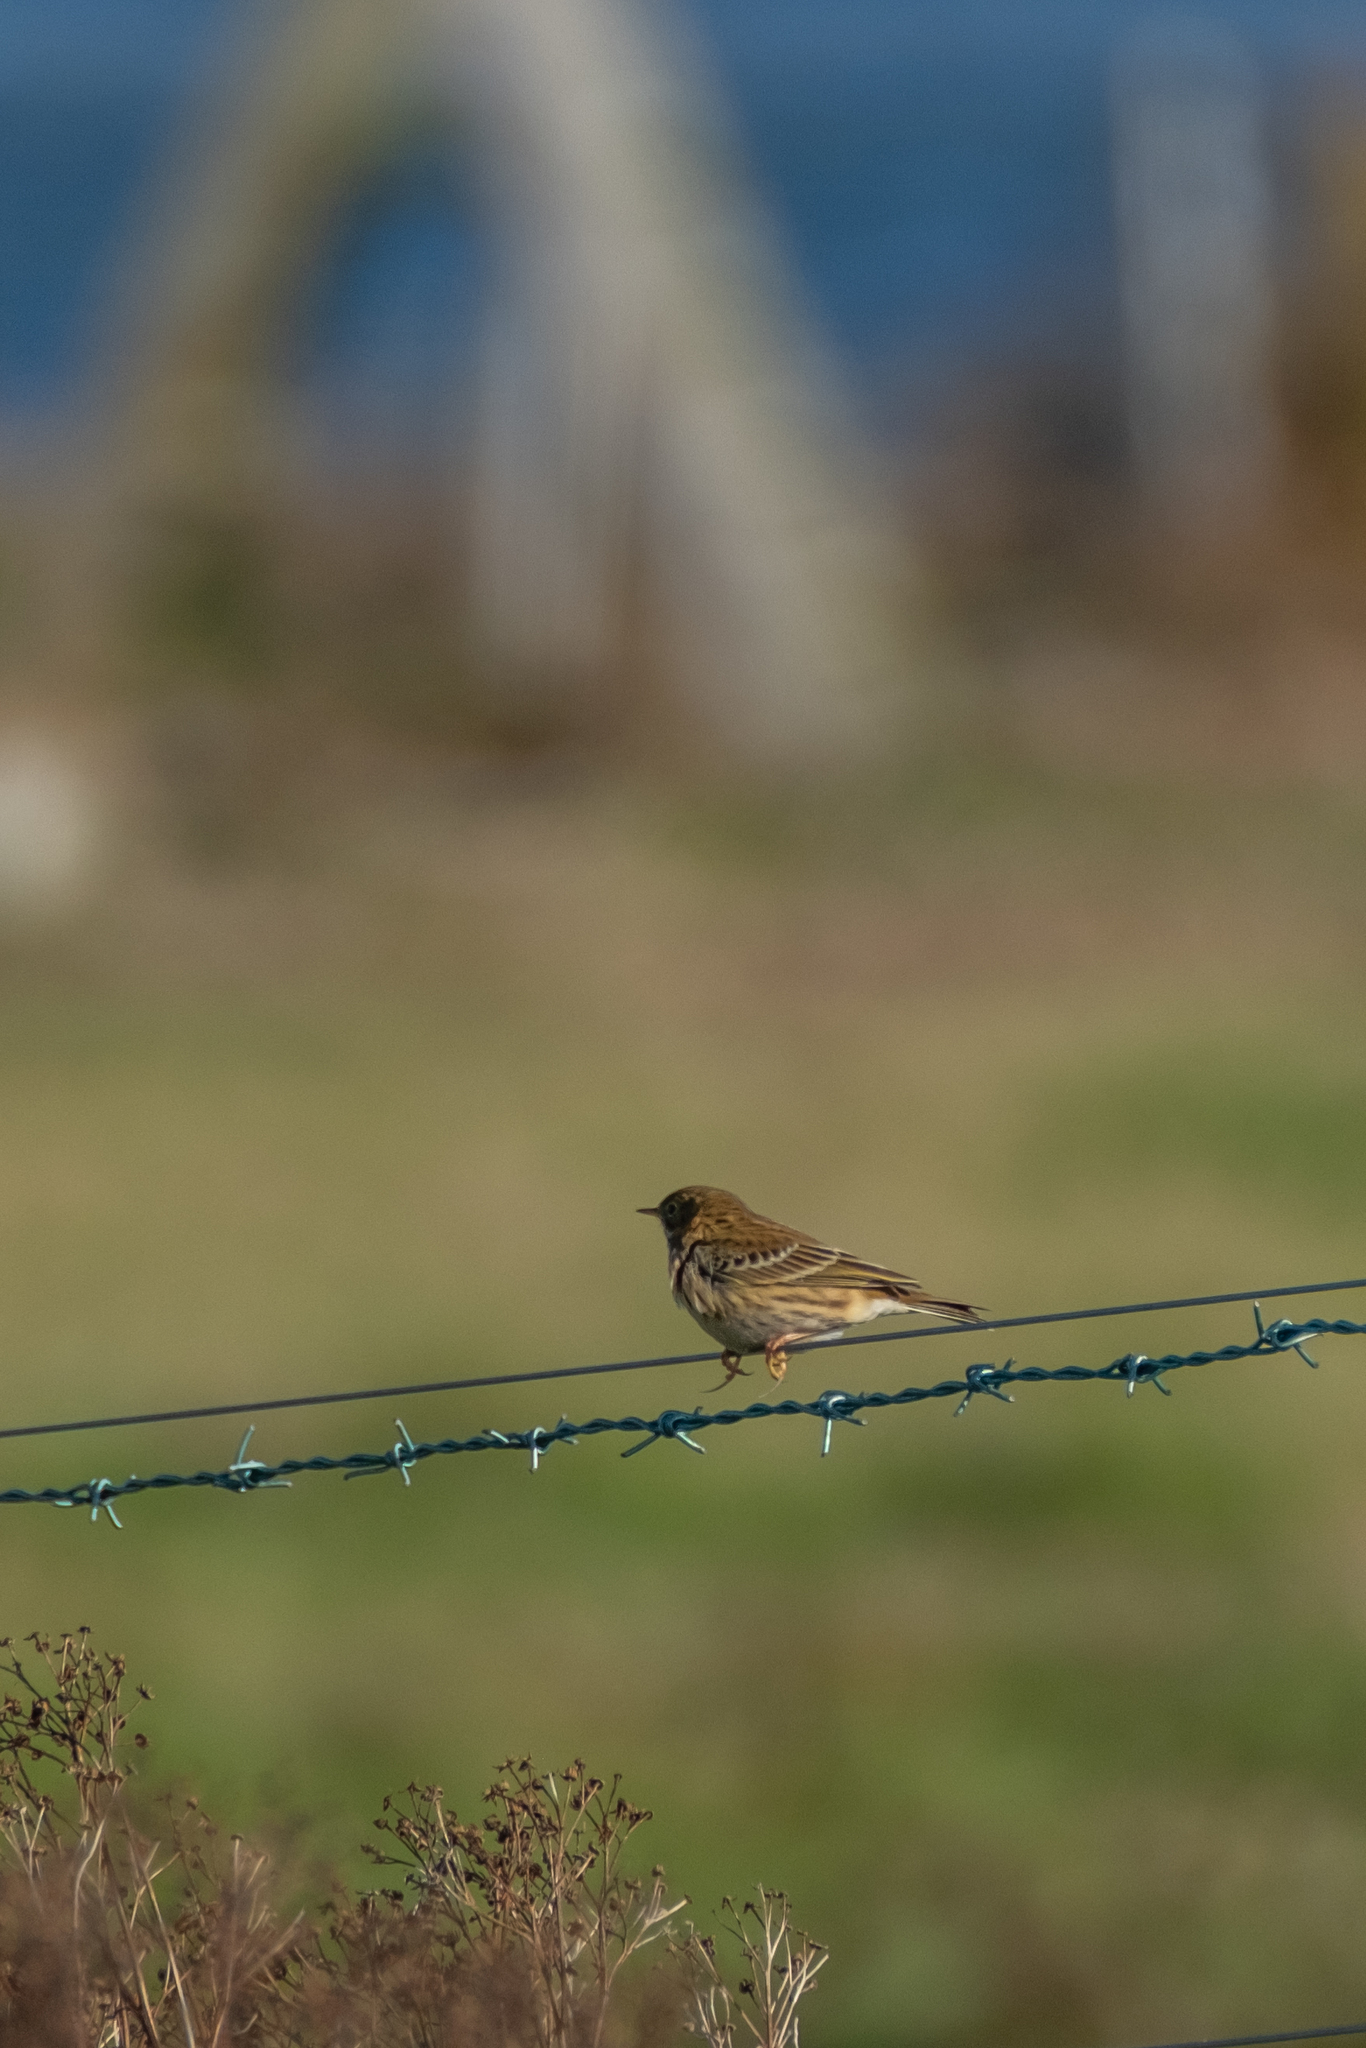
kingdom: Animalia
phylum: Chordata
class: Aves
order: Passeriformes
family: Motacillidae
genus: Anthus
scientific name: Anthus pratensis
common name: Meadow pipit
